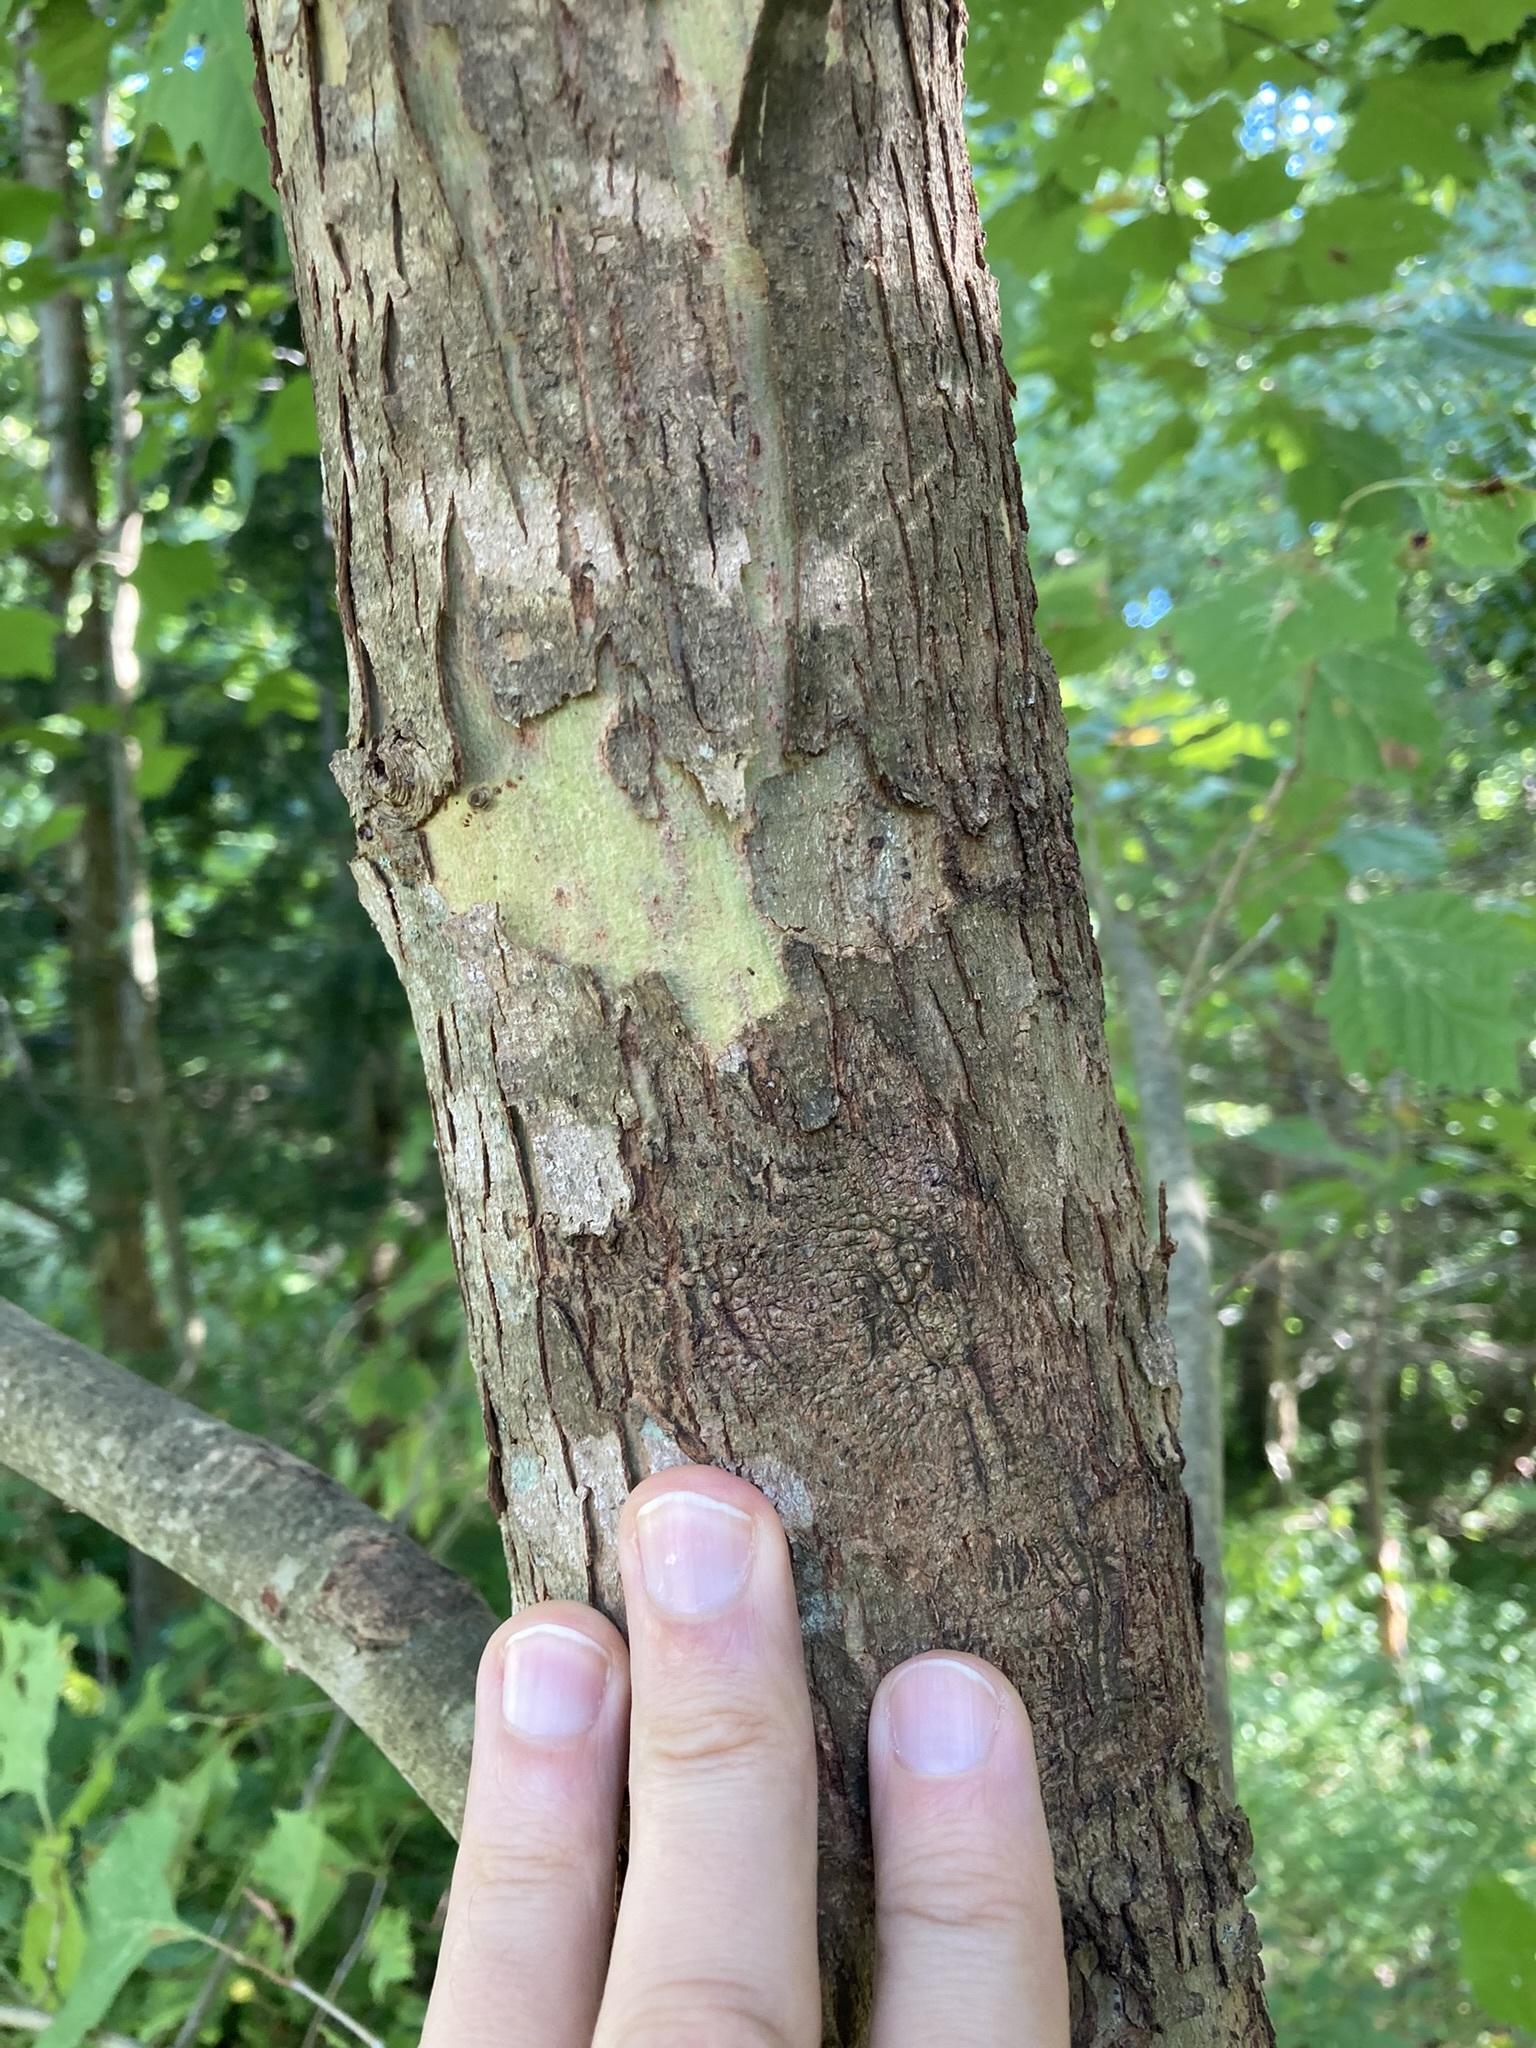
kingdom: Plantae
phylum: Tracheophyta
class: Magnoliopsida
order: Proteales
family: Platanaceae
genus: Platanus
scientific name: Platanus occidentalis
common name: American sycamore
